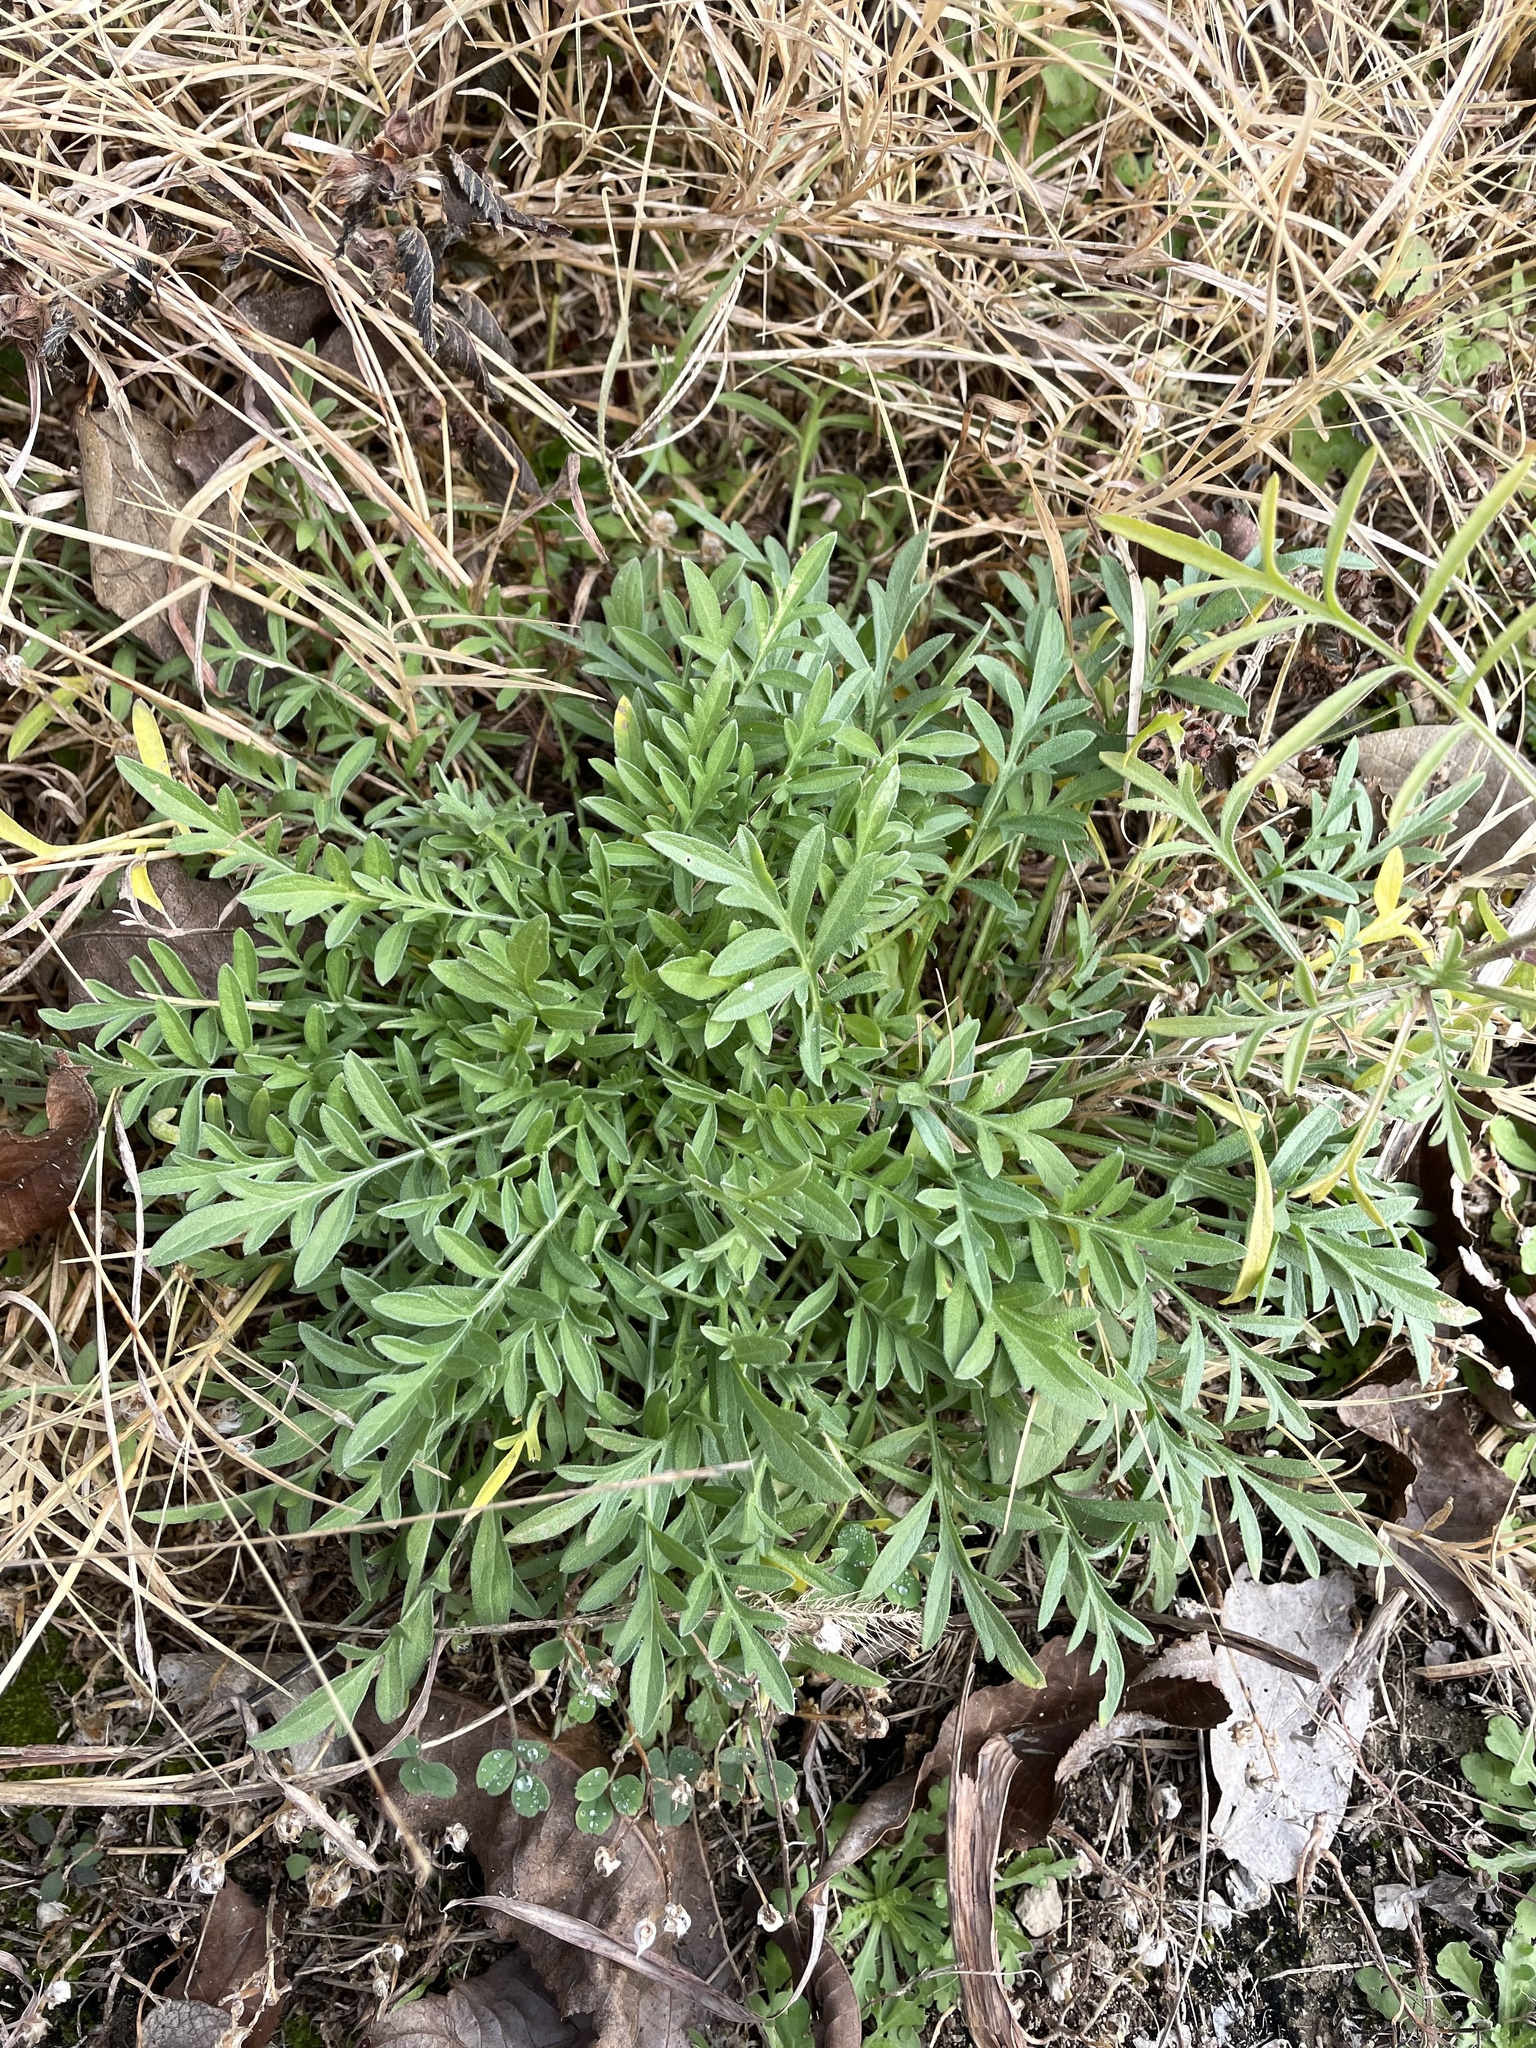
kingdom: Plantae
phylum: Tracheophyta
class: Magnoliopsida
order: Asterales
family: Asteraceae
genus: Ratibida
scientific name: Ratibida columnifera
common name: Prairie coneflower
